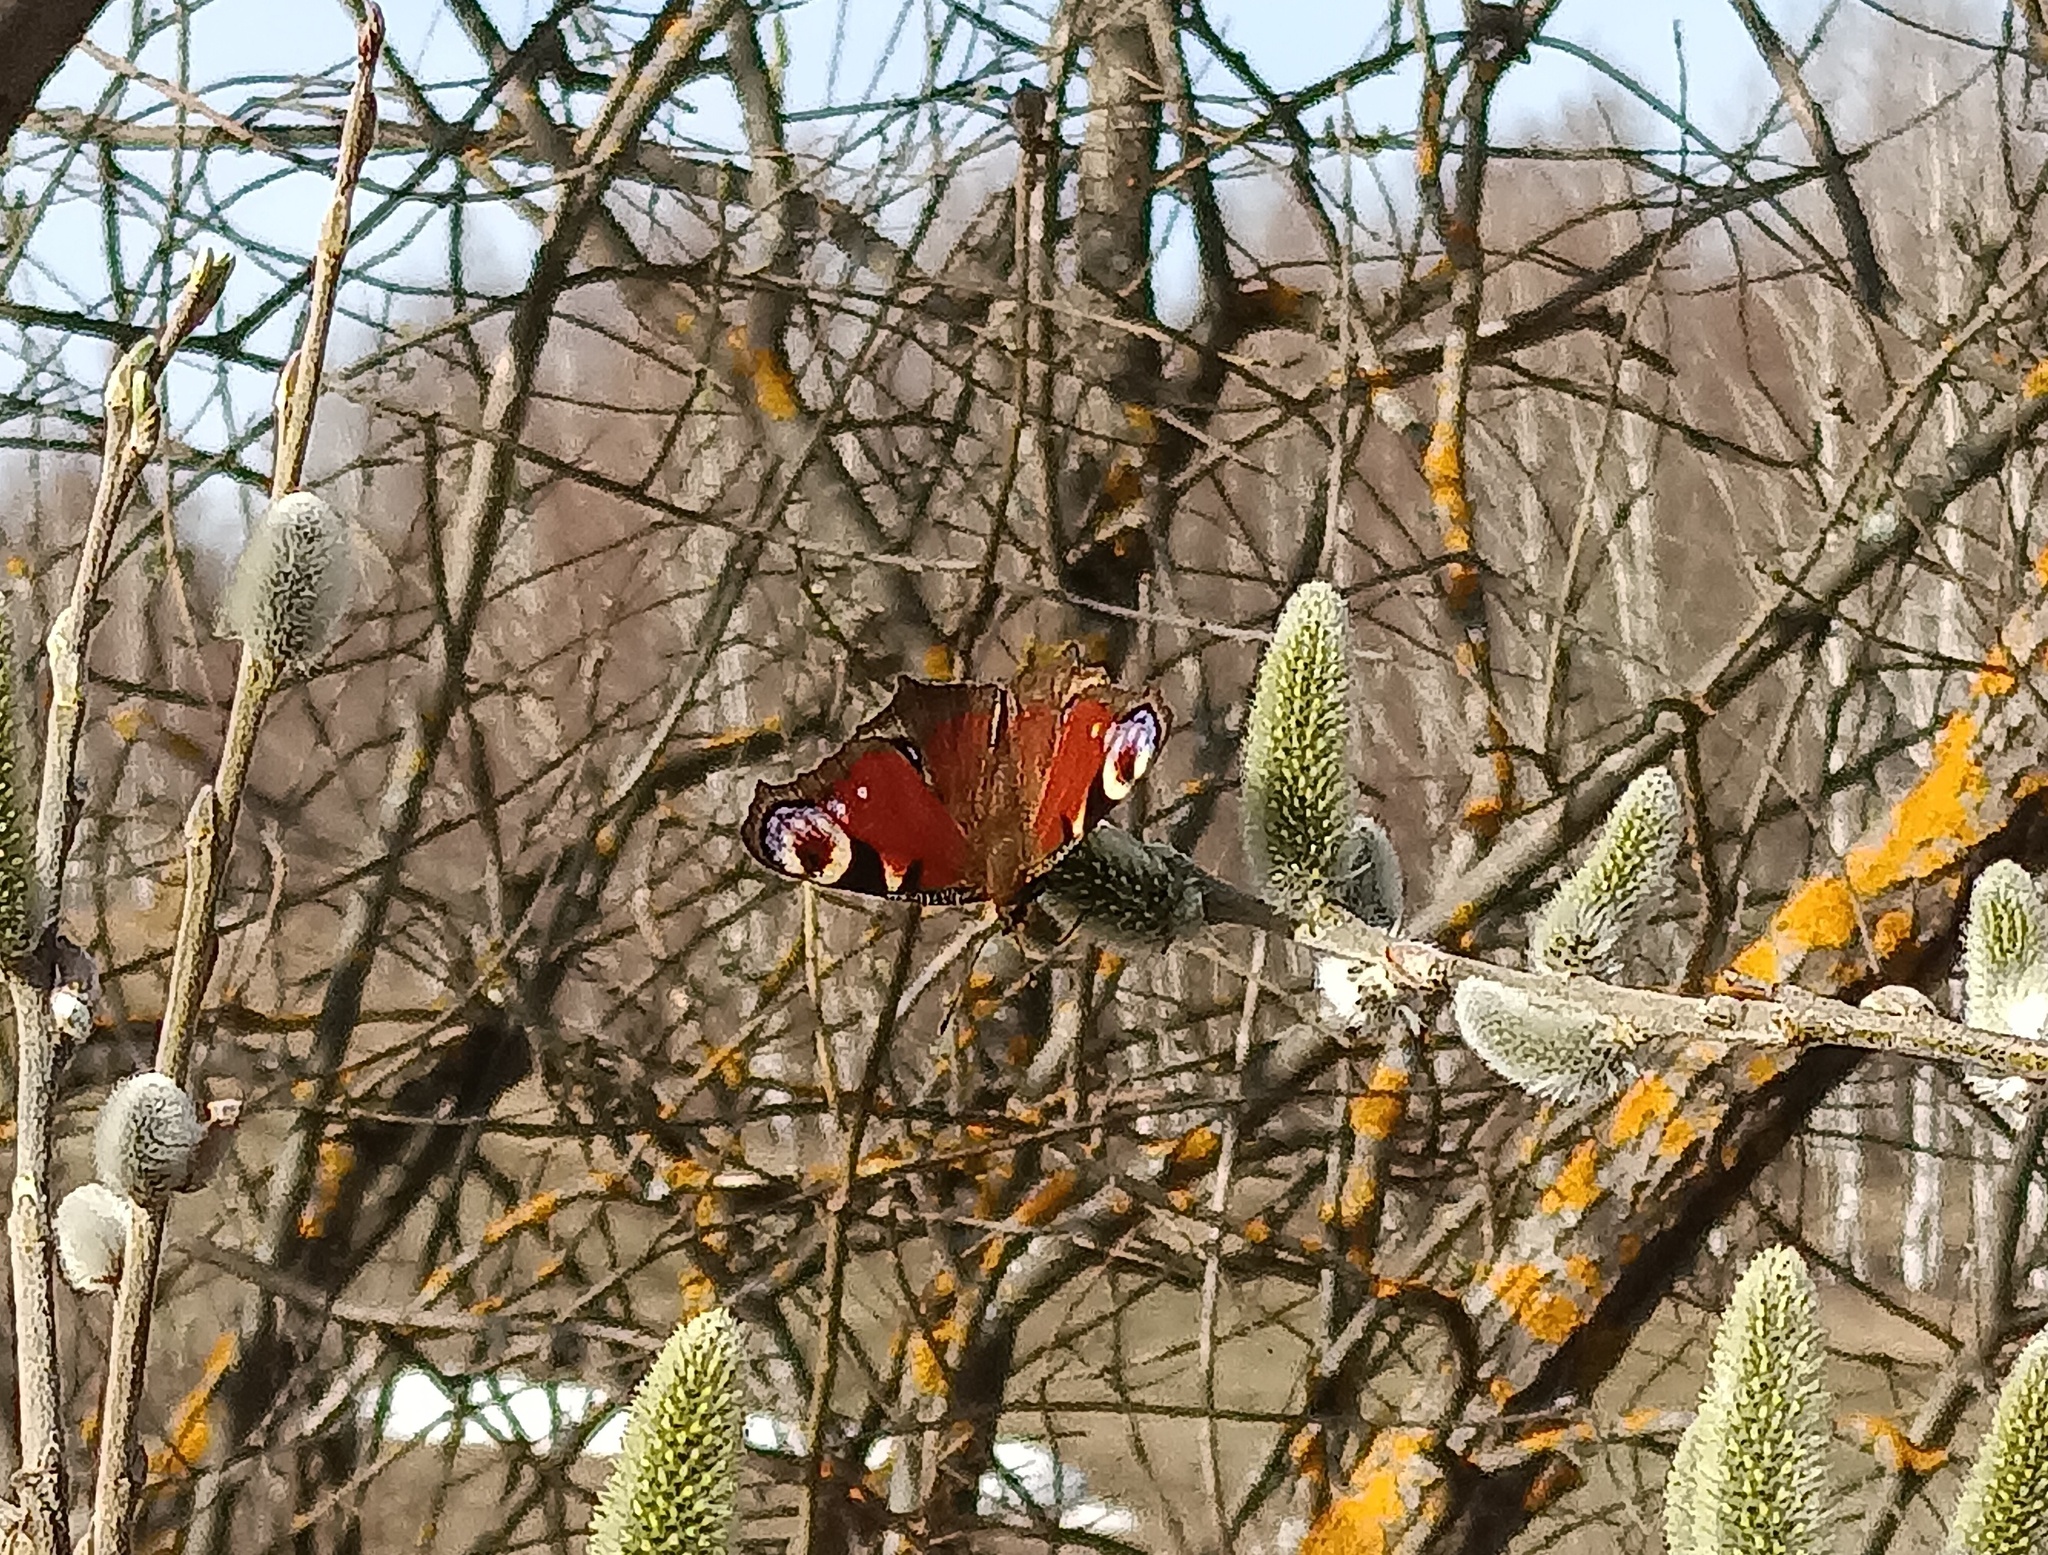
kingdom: Animalia
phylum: Arthropoda
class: Insecta
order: Lepidoptera
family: Nymphalidae
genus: Aglais
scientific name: Aglais io
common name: Peacock
